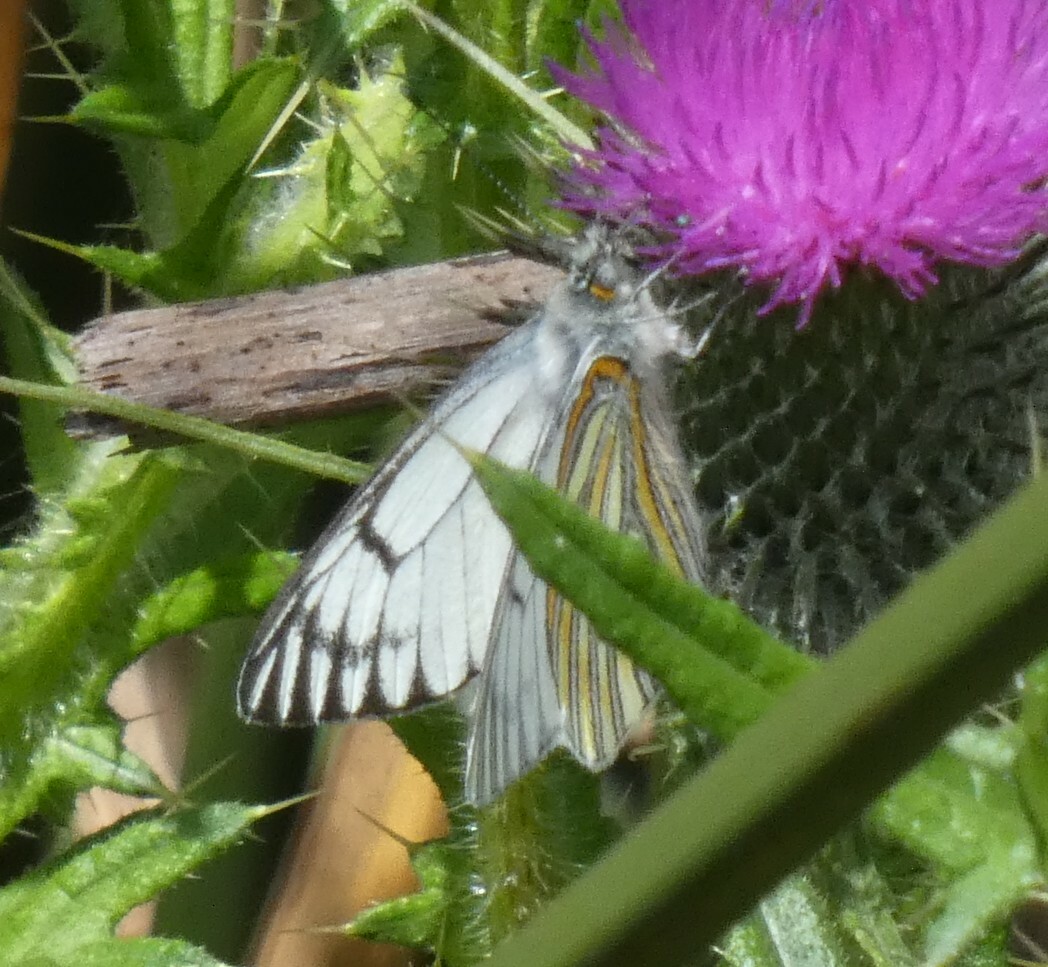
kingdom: Animalia
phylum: Arthropoda
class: Insecta
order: Lepidoptera
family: Pieridae
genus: Tatochila
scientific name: Tatochila xanthodice
